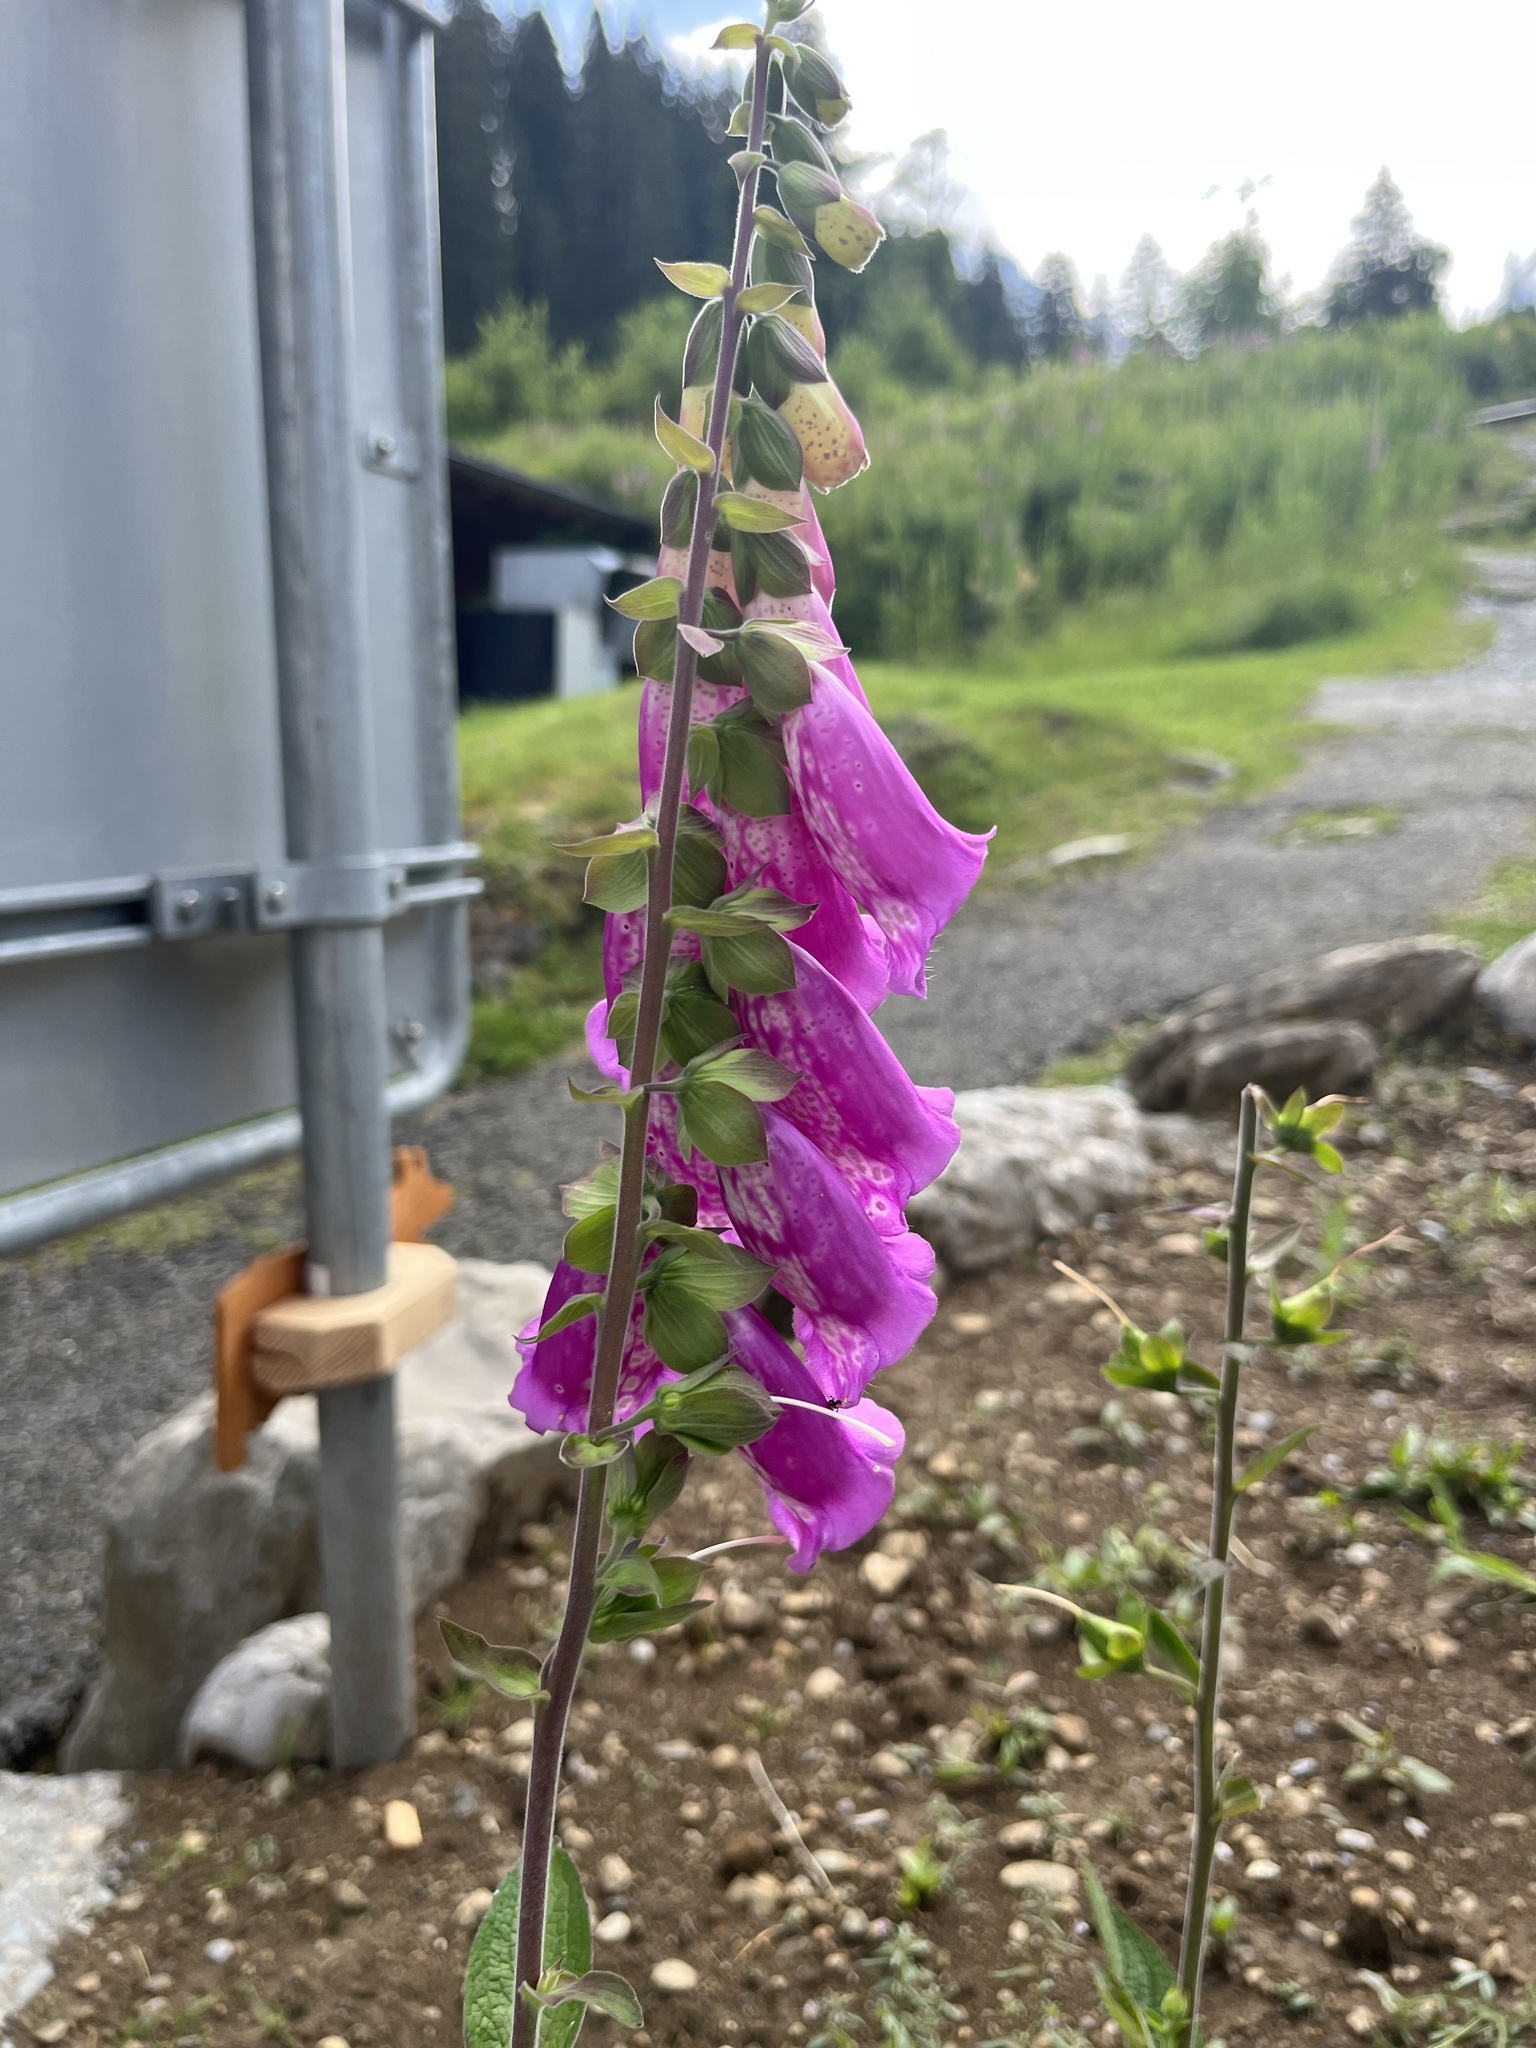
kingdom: Plantae
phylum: Tracheophyta
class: Magnoliopsida
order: Lamiales
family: Plantaginaceae
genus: Digitalis
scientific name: Digitalis purpurea
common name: Foxglove
